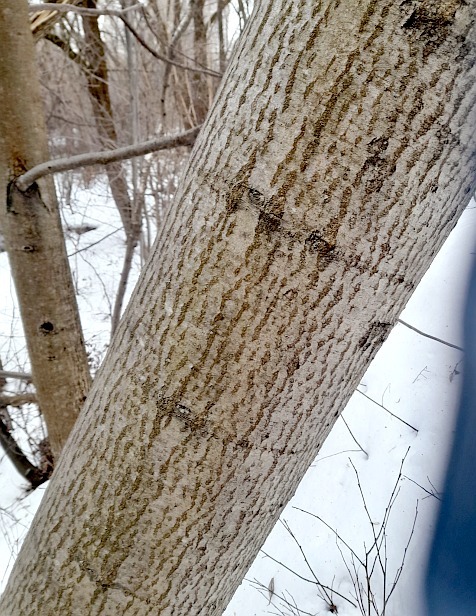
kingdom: Plantae
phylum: Tracheophyta
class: Magnoliopsida
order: Fagales
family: Betulaceae
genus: Alnus
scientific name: Alnus incana
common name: Grey alder
